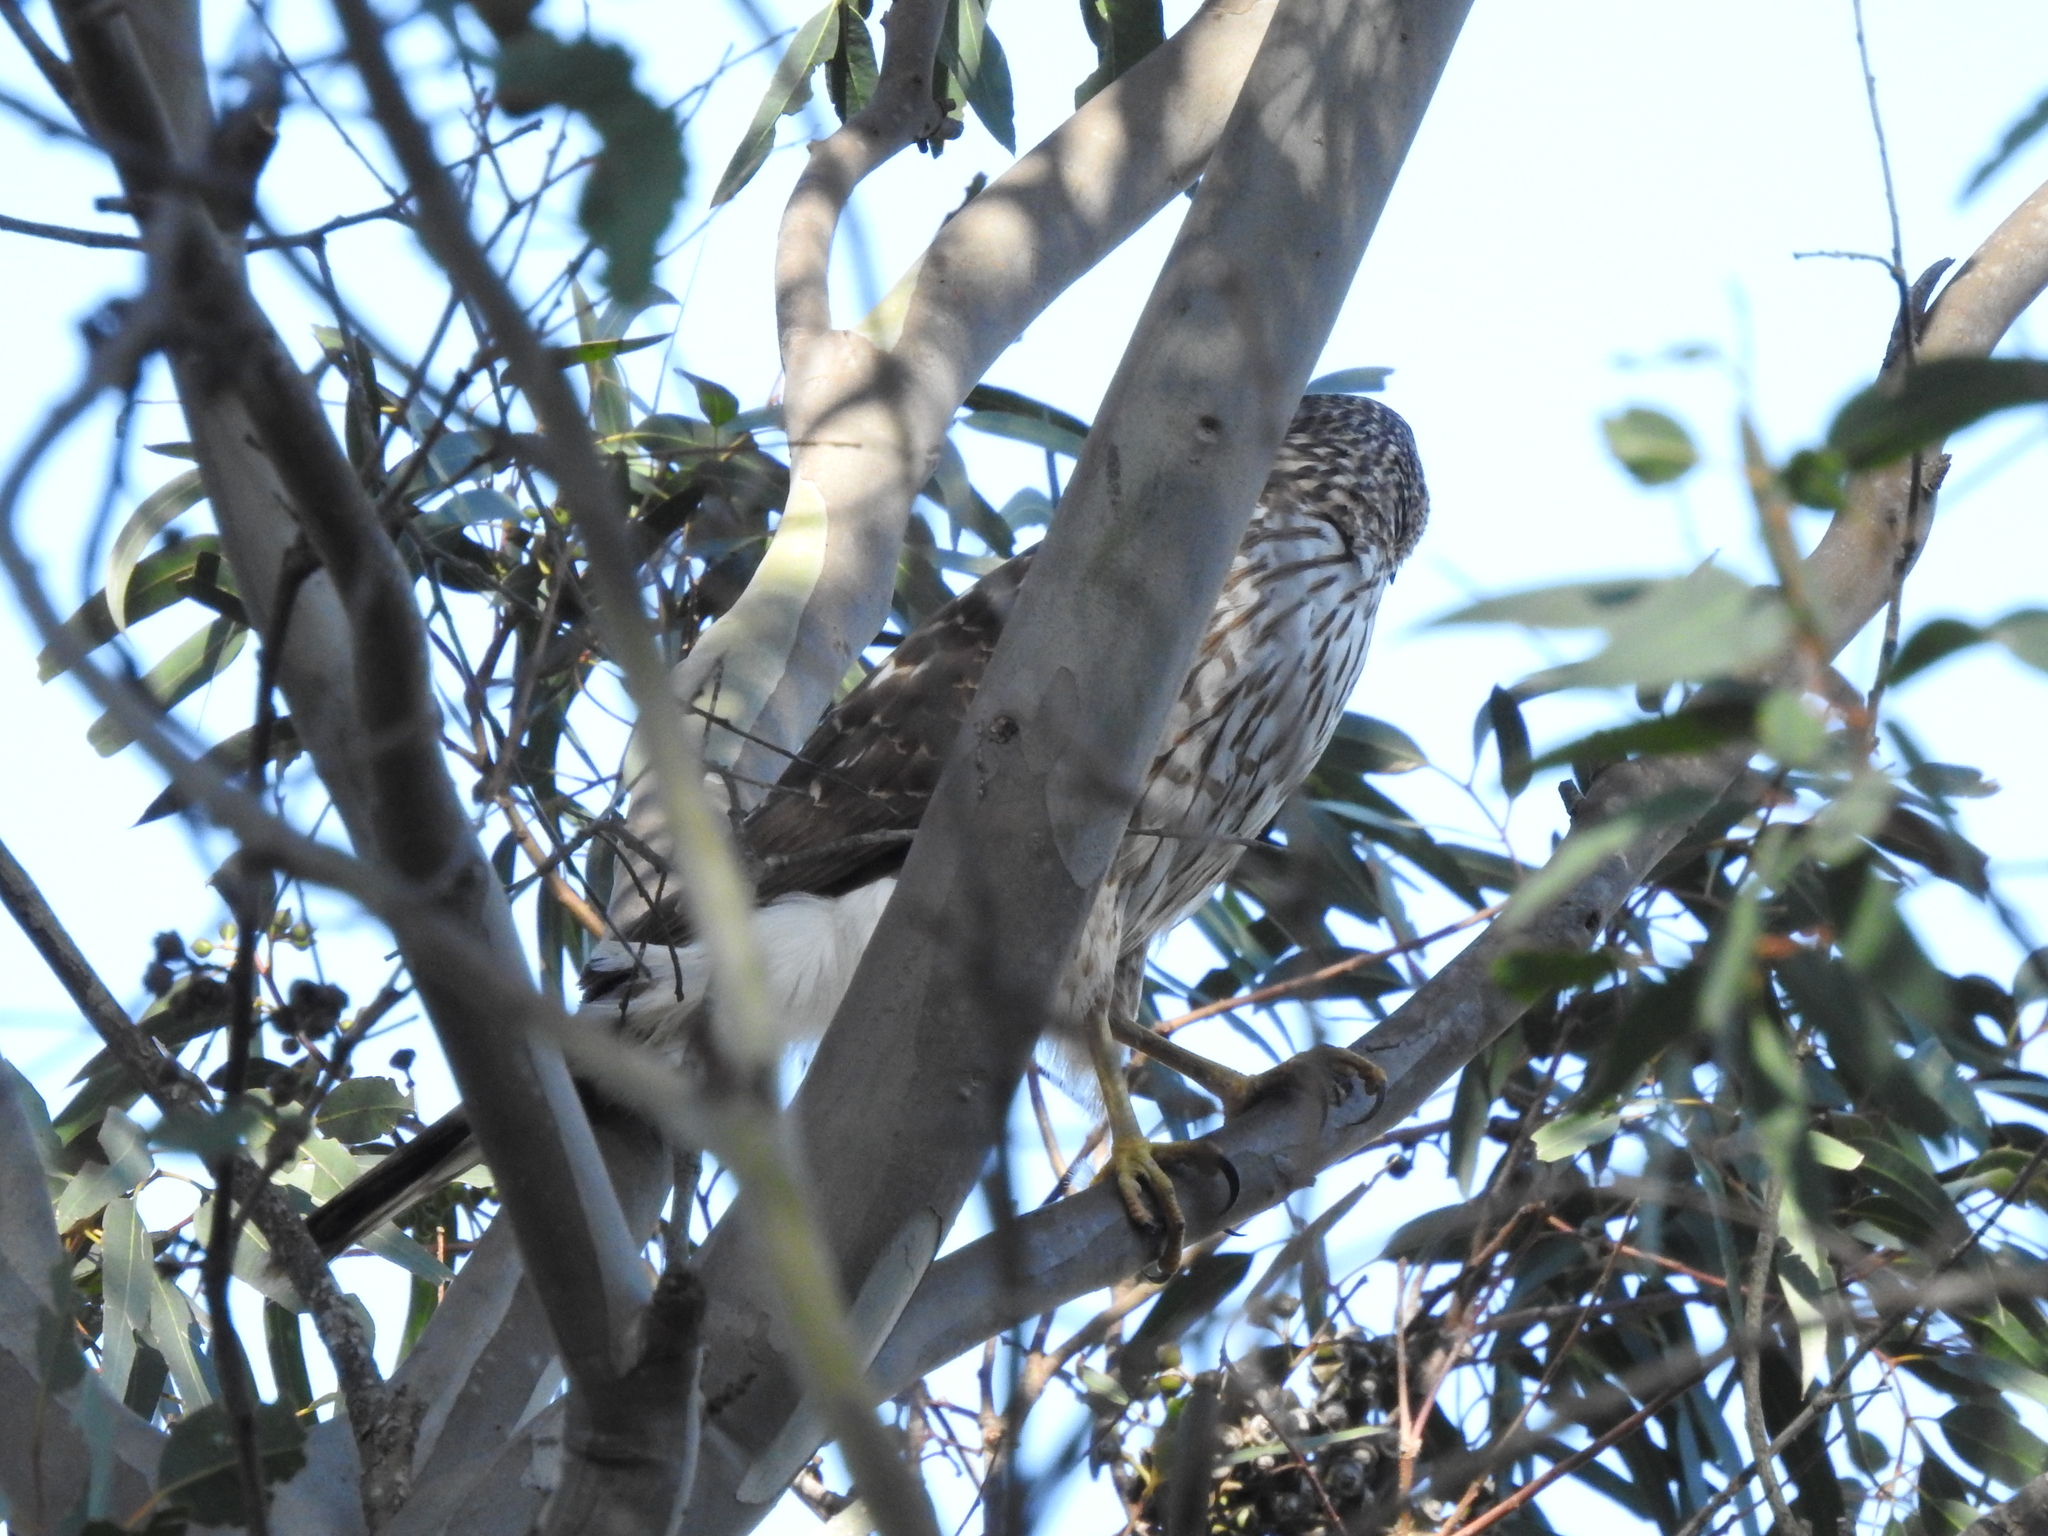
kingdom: Animalia
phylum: Chordata
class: Aves
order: Accipitriformes
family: Accipitridae
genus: Accipiter
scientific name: Accipiter cooperii
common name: Cooper's hawk
